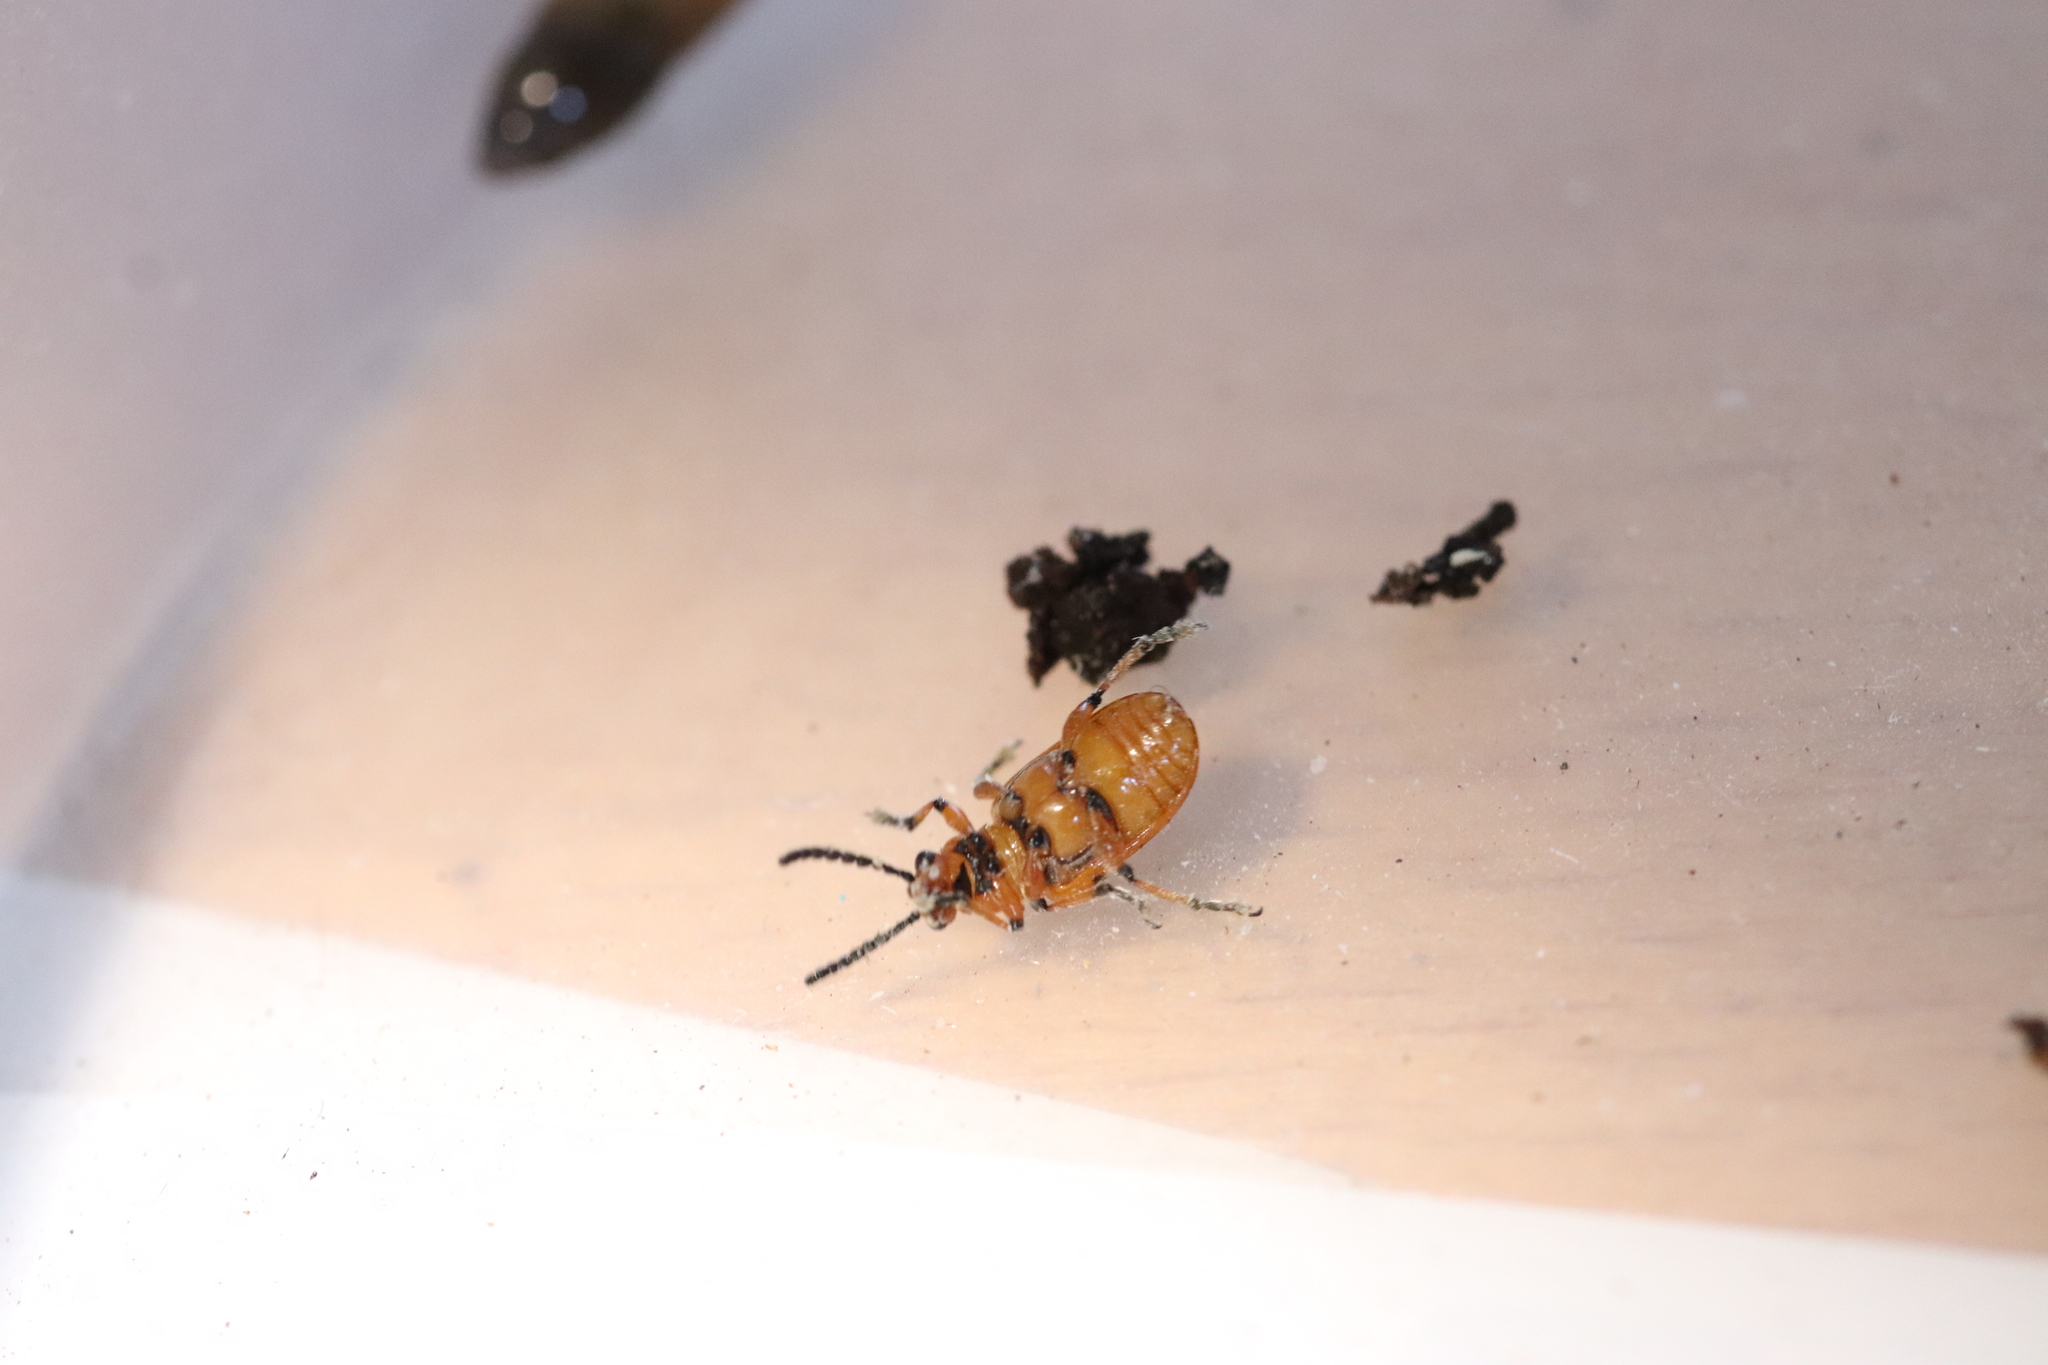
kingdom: Animalia
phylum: Arthropoda
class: Insecta
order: Coleoptera
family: Chrysomelidae
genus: Crioceris
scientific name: Crioceris duodecimpunctata
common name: Twelve-spotted asparagus beetle
